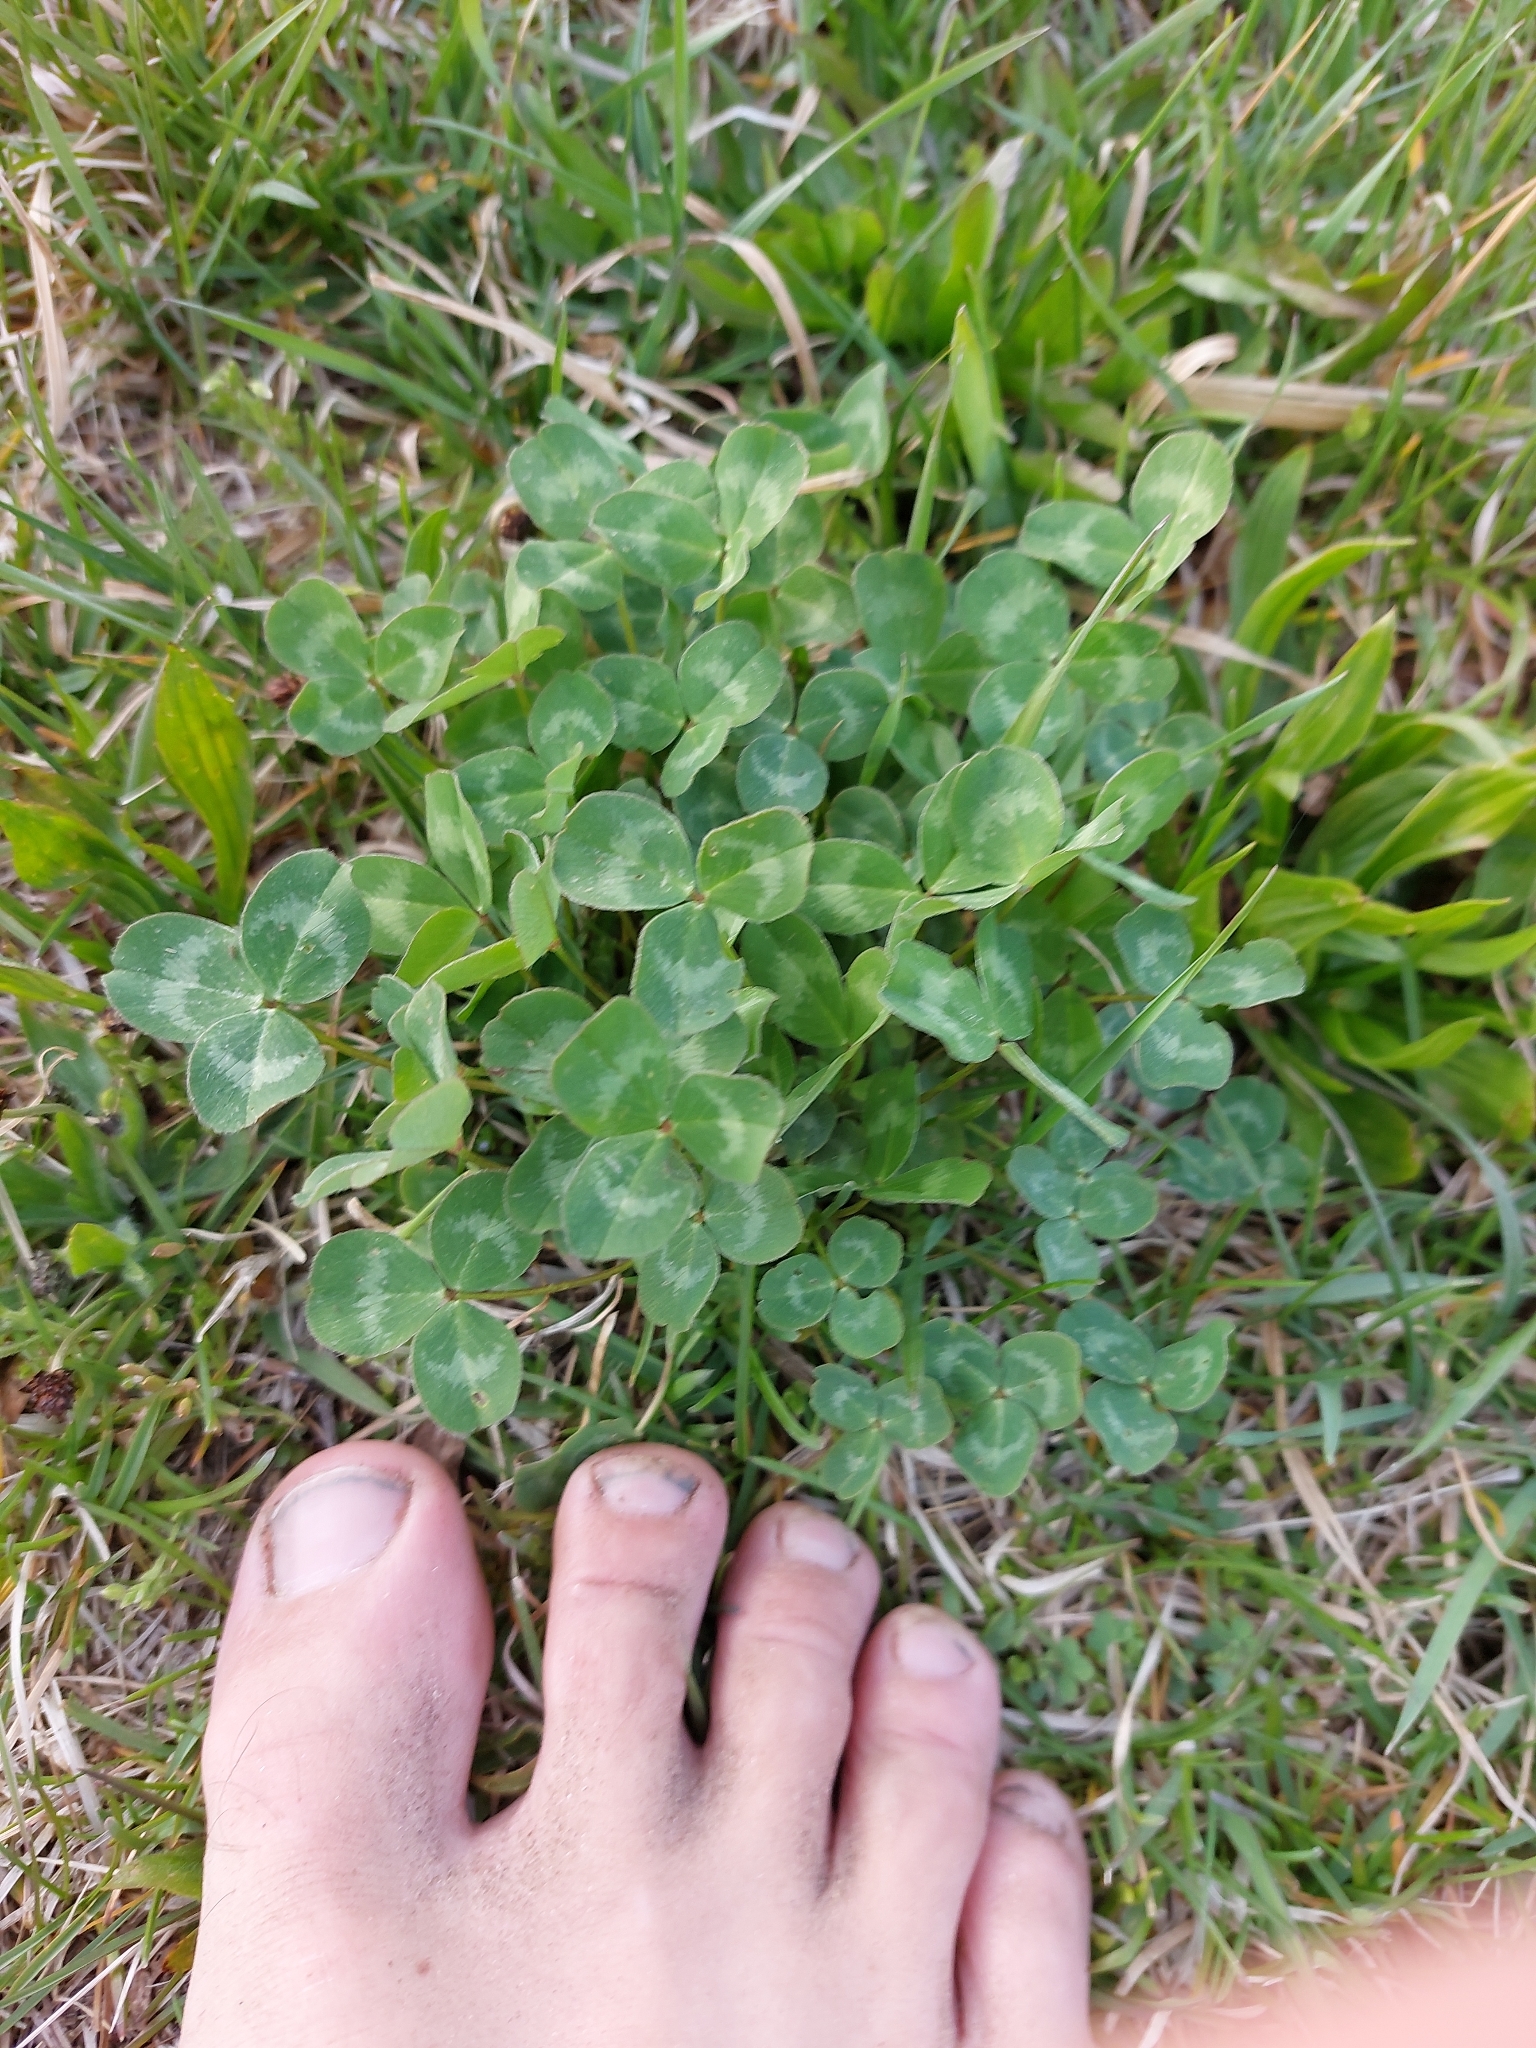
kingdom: Plantae
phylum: Tracheophyta
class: Magnoliopsida
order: Fabales
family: Fabaceae
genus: Trifolium
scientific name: Trifolium pratense
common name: Red clover
